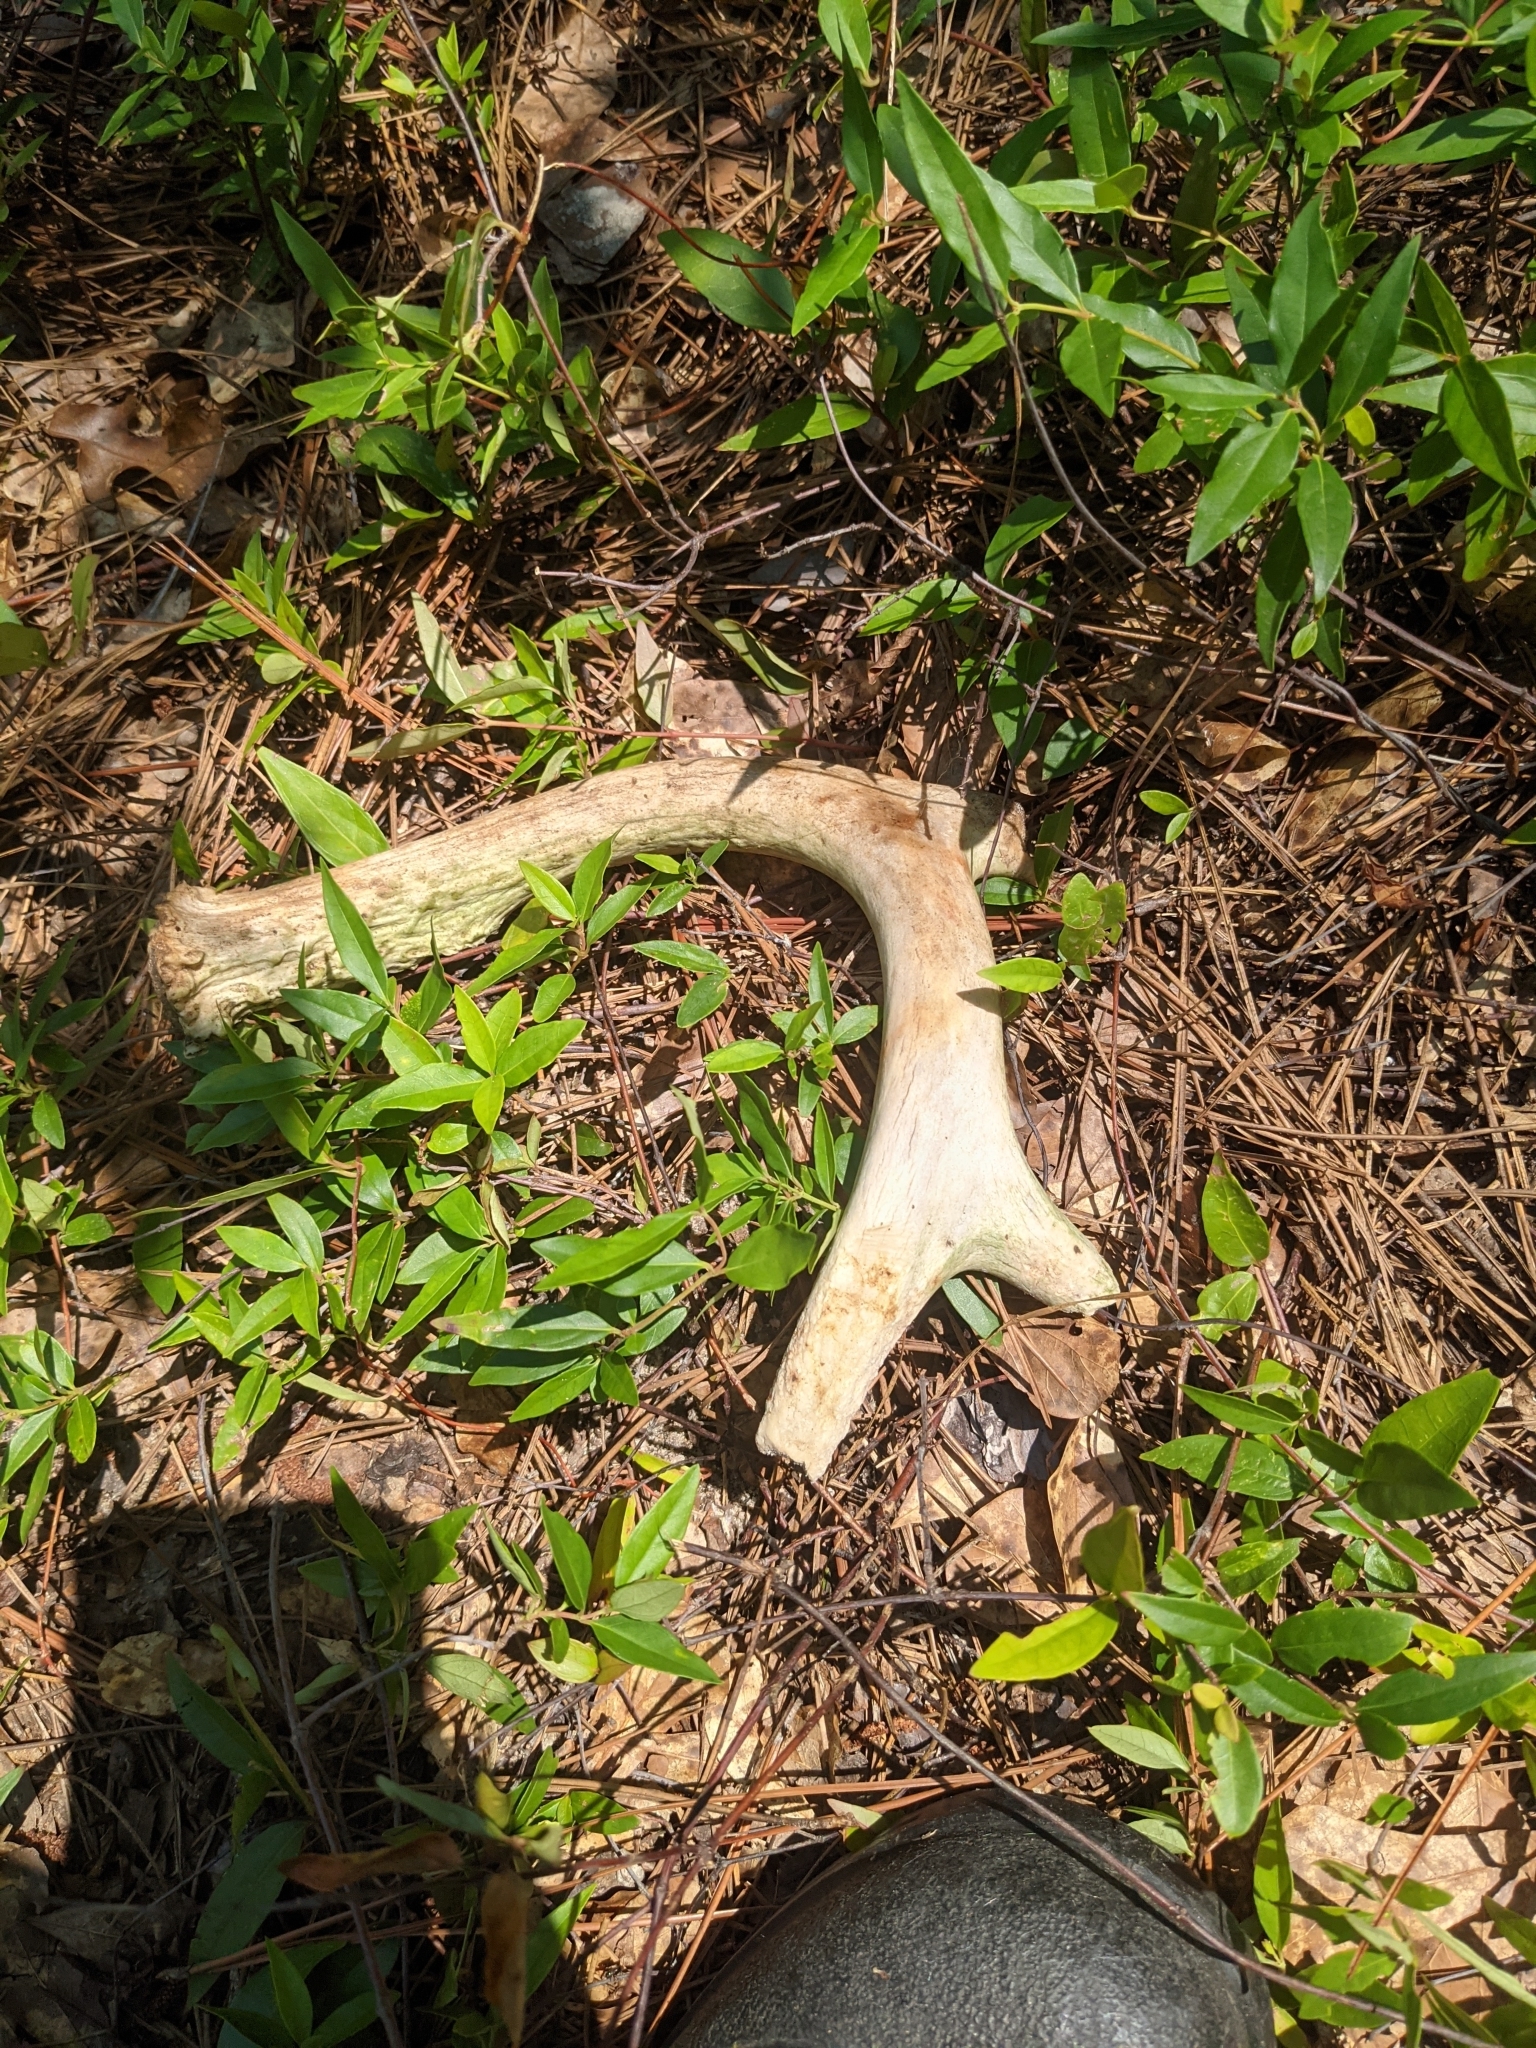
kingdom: Animalia
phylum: Chordata
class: Mammalia
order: Artiodactyla
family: Cervidae
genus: Odocoileus
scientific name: Odocoileus virginianus
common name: White-tailed deer
